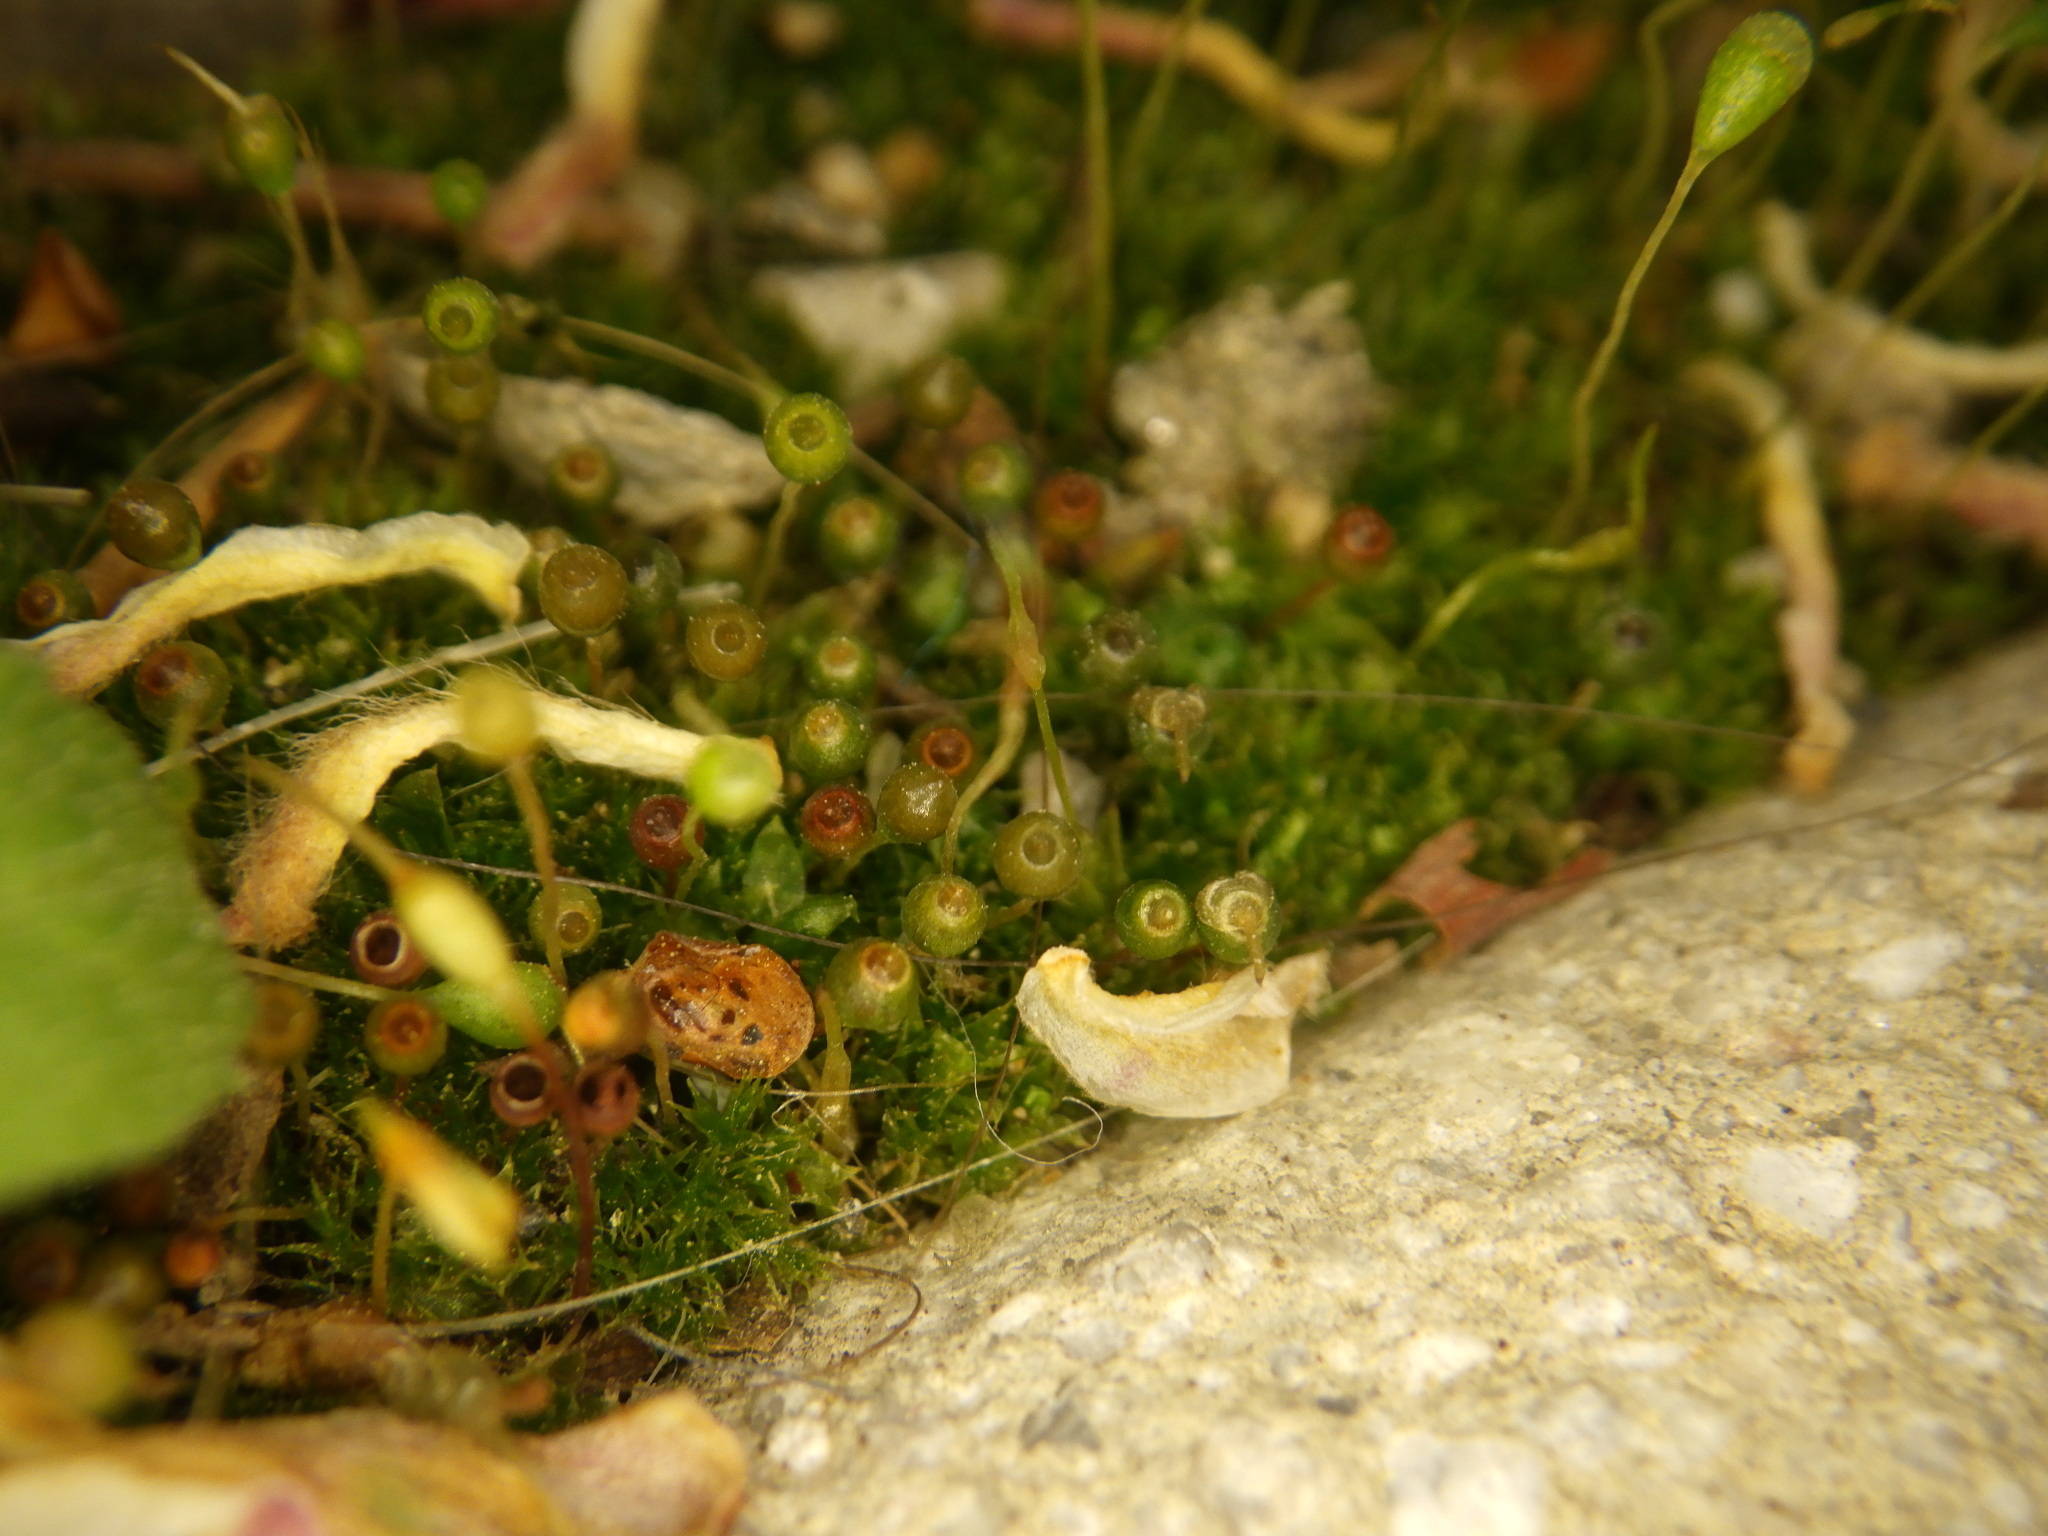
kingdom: Plantae
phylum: Bryophyta
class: Bryopsida
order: Funariales
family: Funariaceae
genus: Physcomitrium
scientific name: Physcomitrium pyriforme
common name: Common bladder-moss
